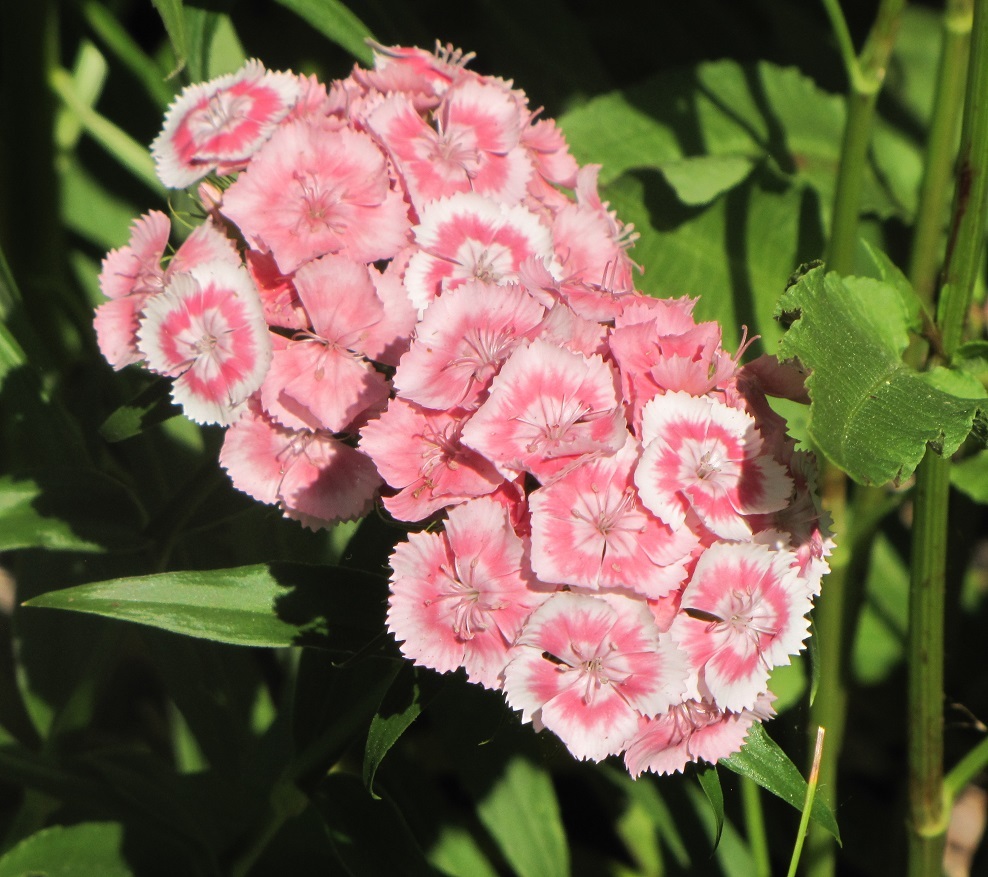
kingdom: Plantae
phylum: Tracheophyta
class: Magnoliopsida
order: Caryophyllales
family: Caryophyllaceae
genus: Dianthus
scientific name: Dianthus barbatus
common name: Sweet-william
